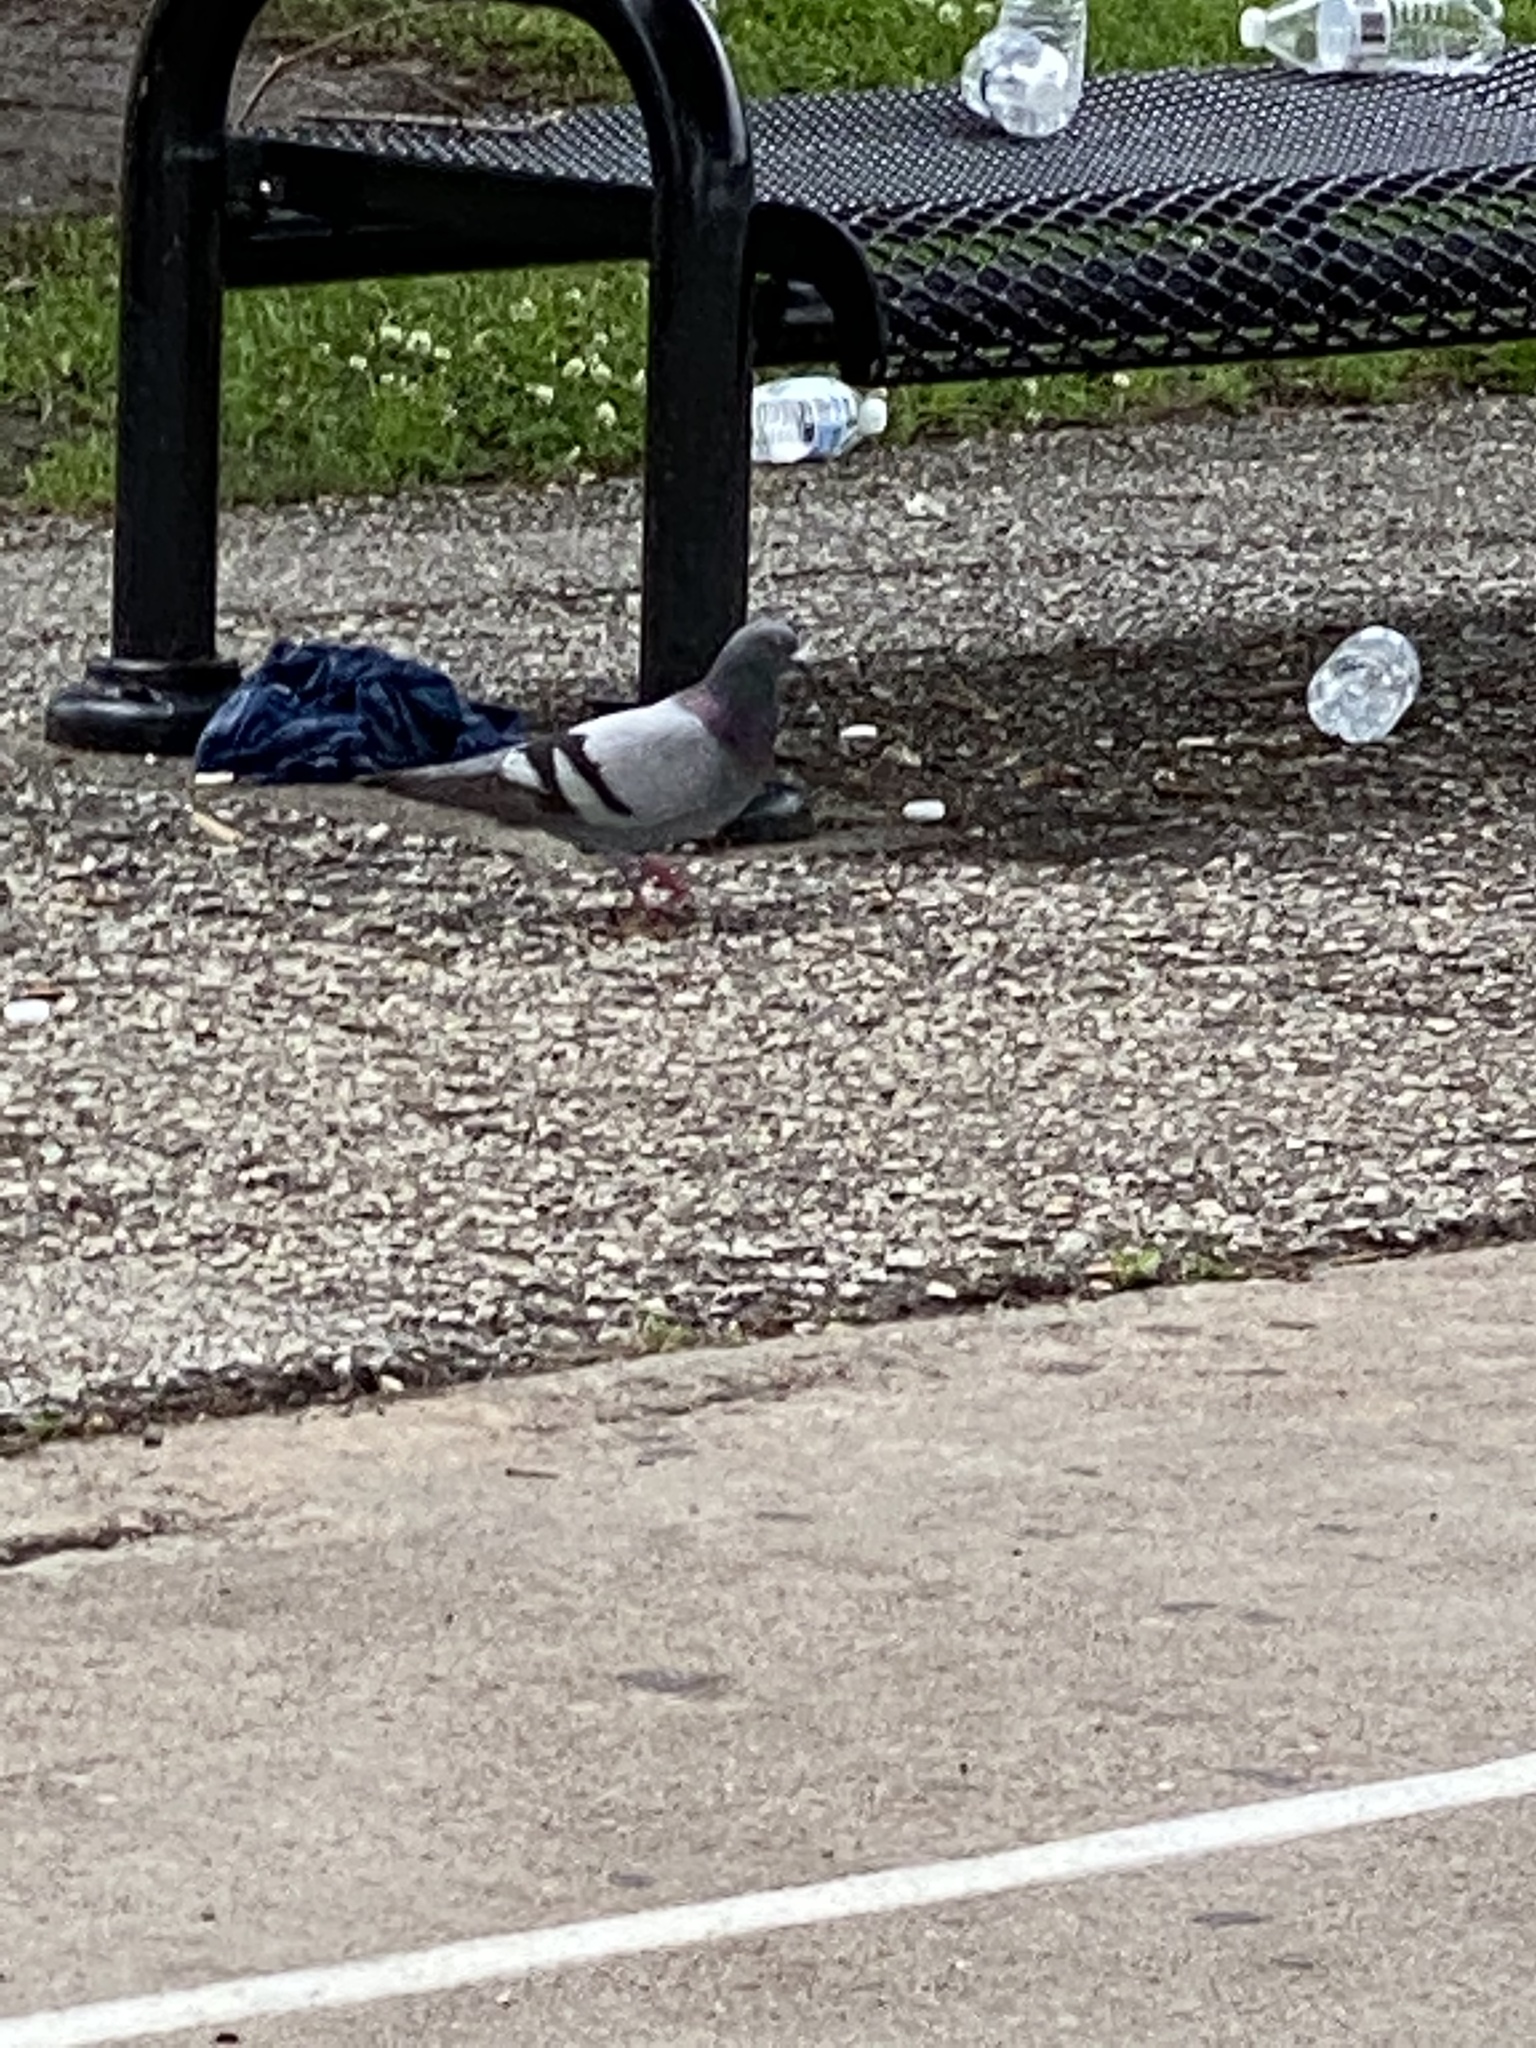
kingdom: Animalia
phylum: Chordata
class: Aves
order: Columbiformes
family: Columbidae
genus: Columba
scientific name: Columba livia
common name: Rock pigeon
